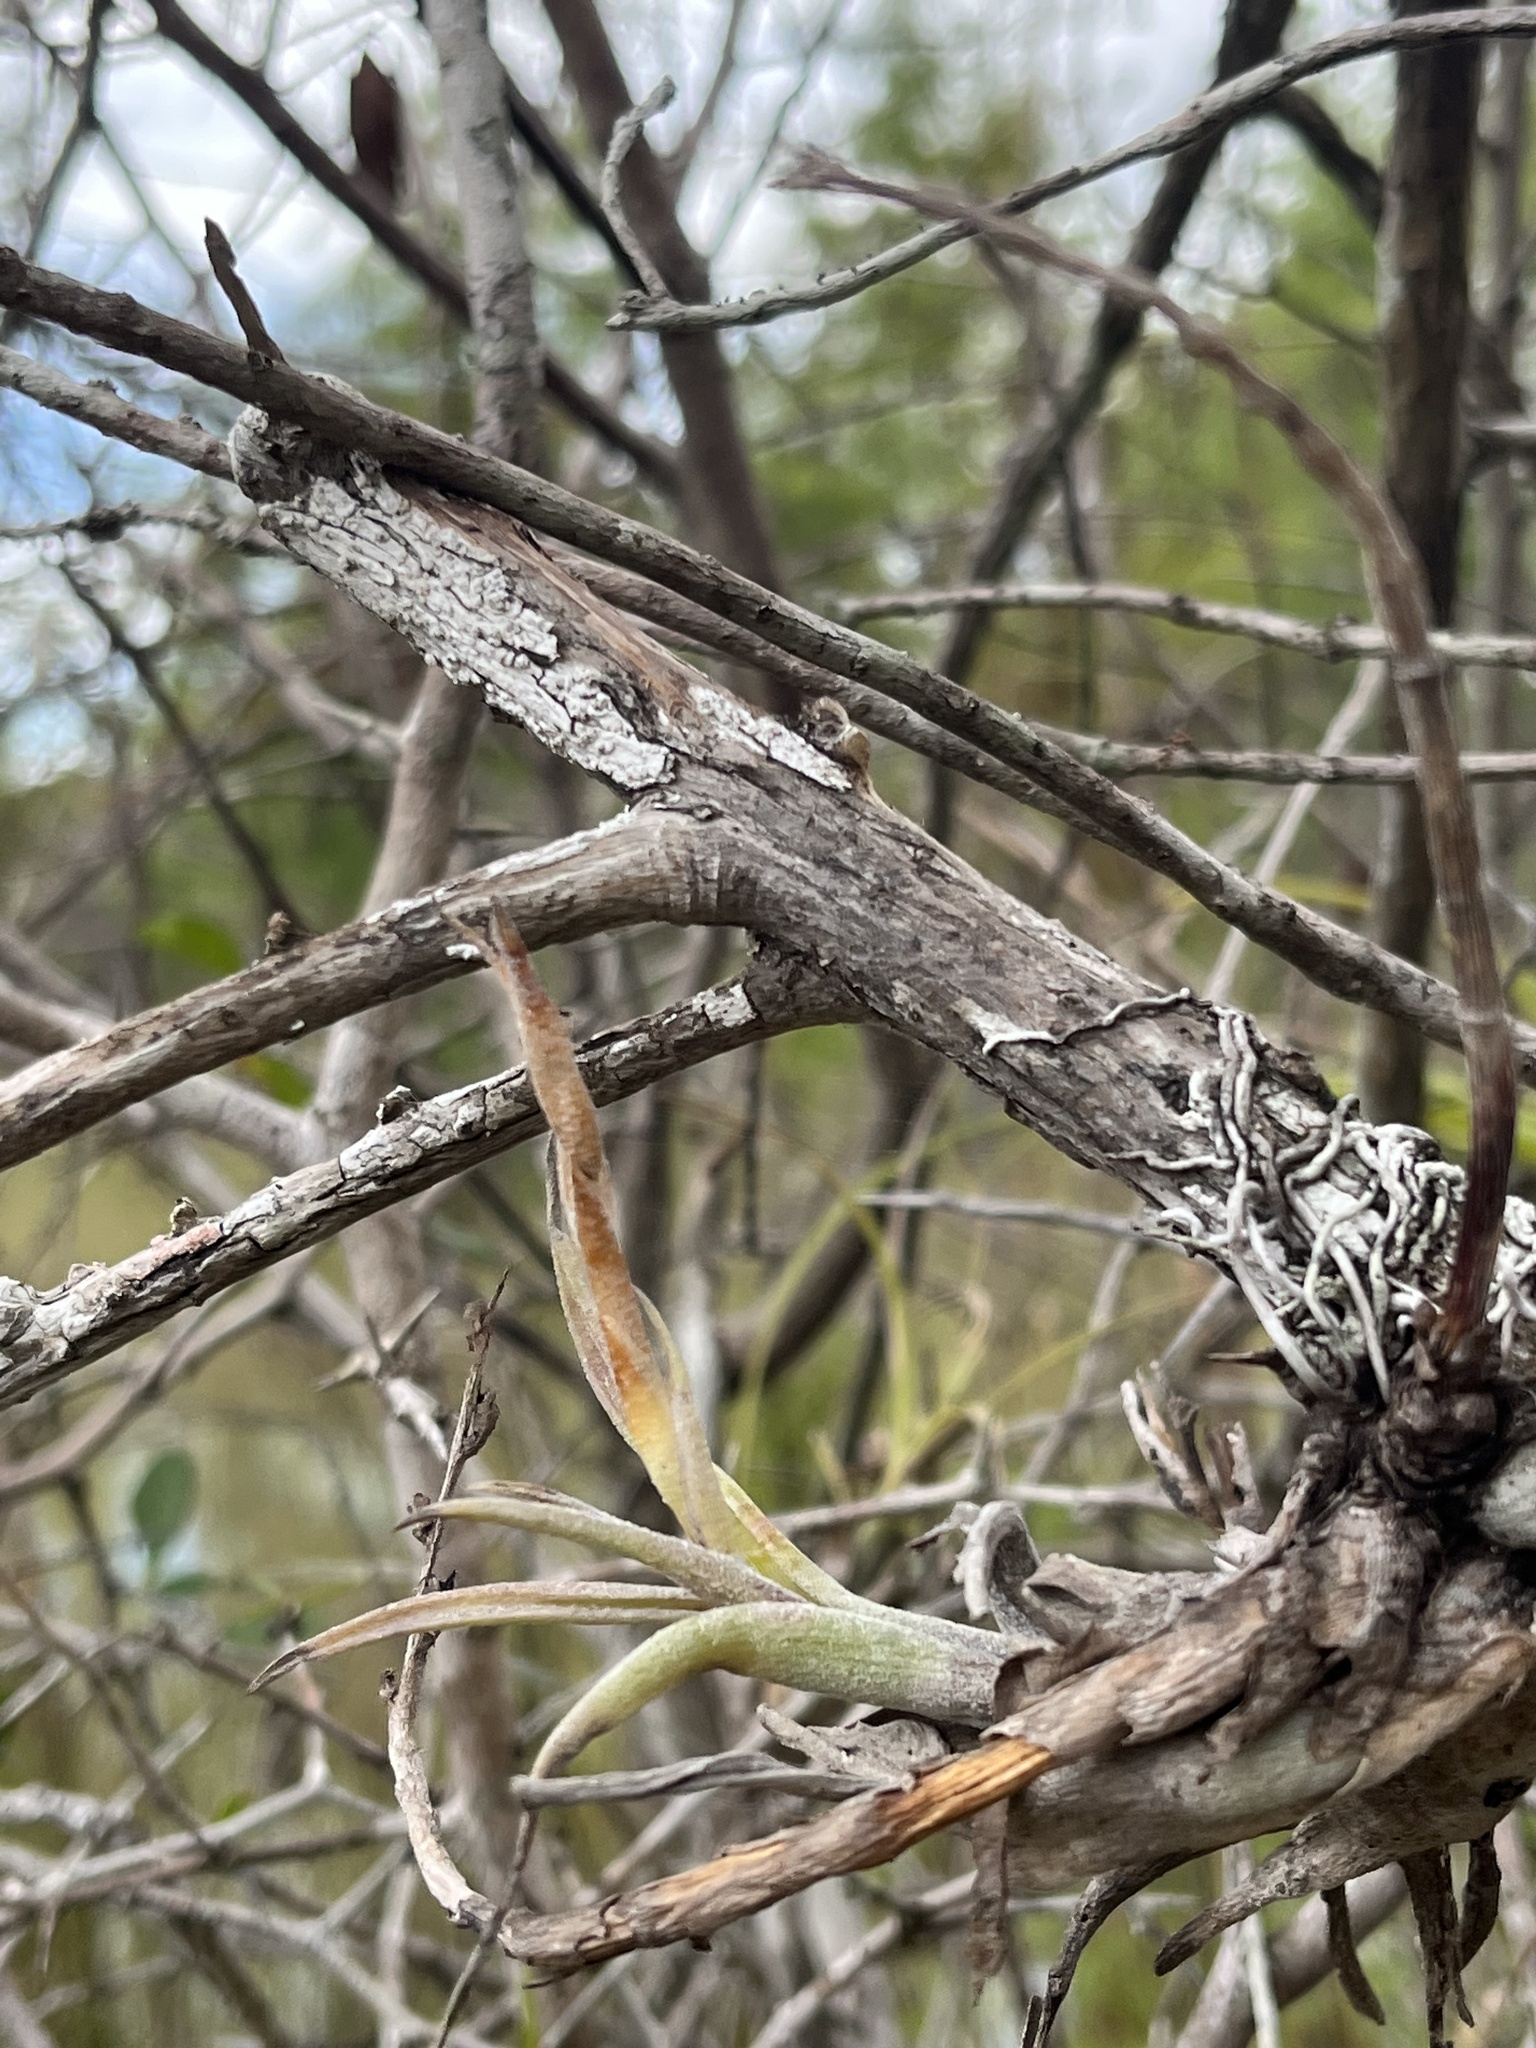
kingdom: Plantae
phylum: Tracheophyta
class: Liliopsida
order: Poales
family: Bromeliaceae
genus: Tillandsia
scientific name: Tillandsia paucifolia
